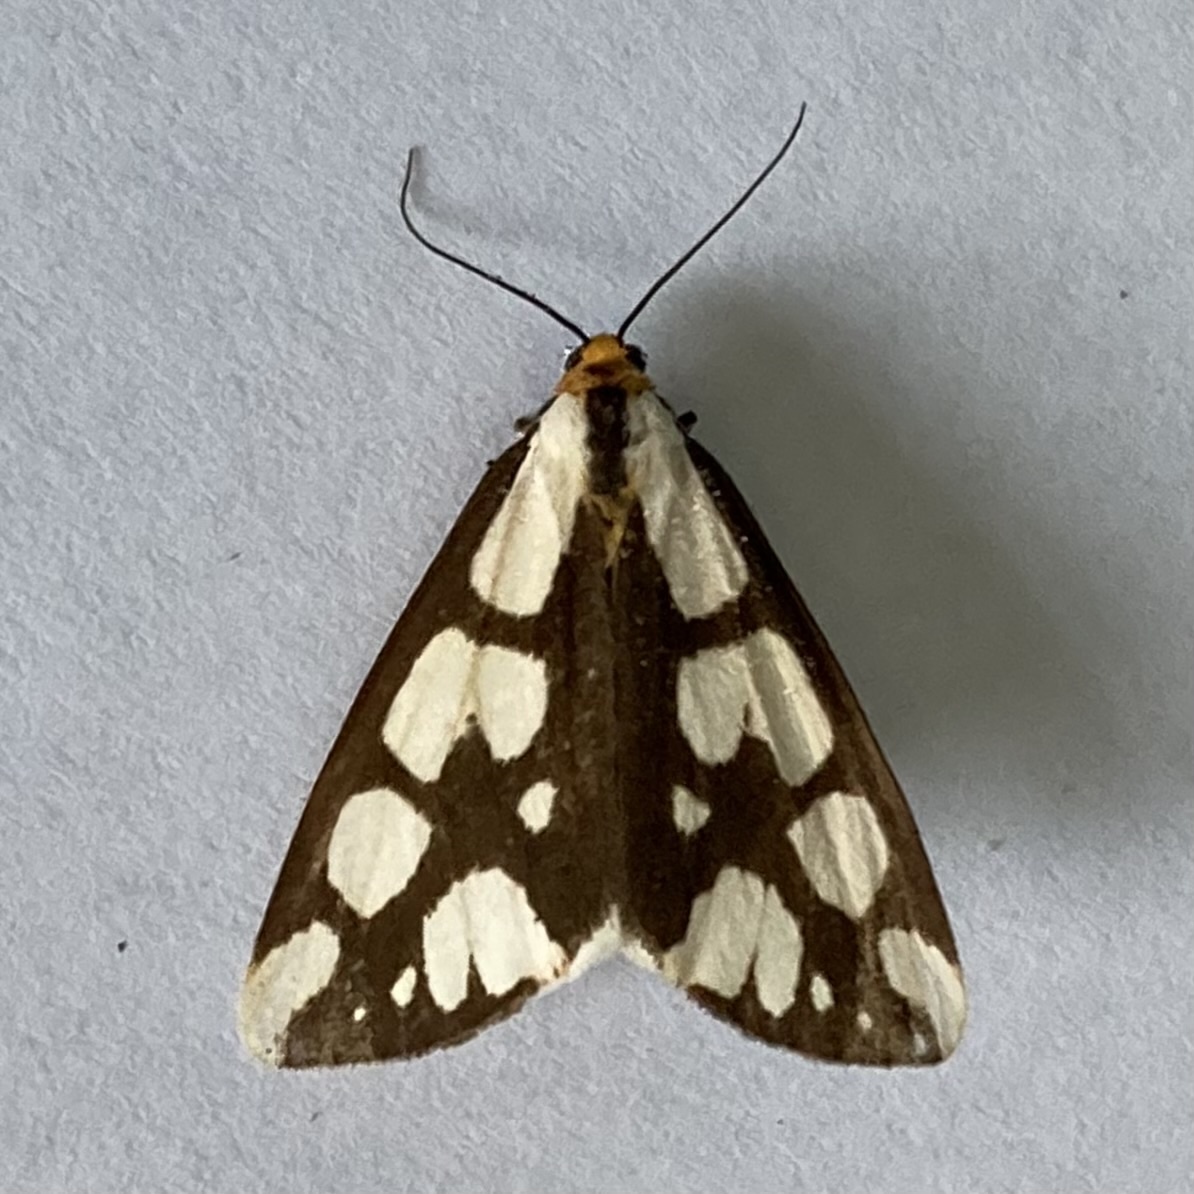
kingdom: Animalia
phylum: Arthropoda
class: Insecta
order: Lepidoptera
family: Erebidae
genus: Haploa
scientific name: Haploa confusa
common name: Confused haploa moth
